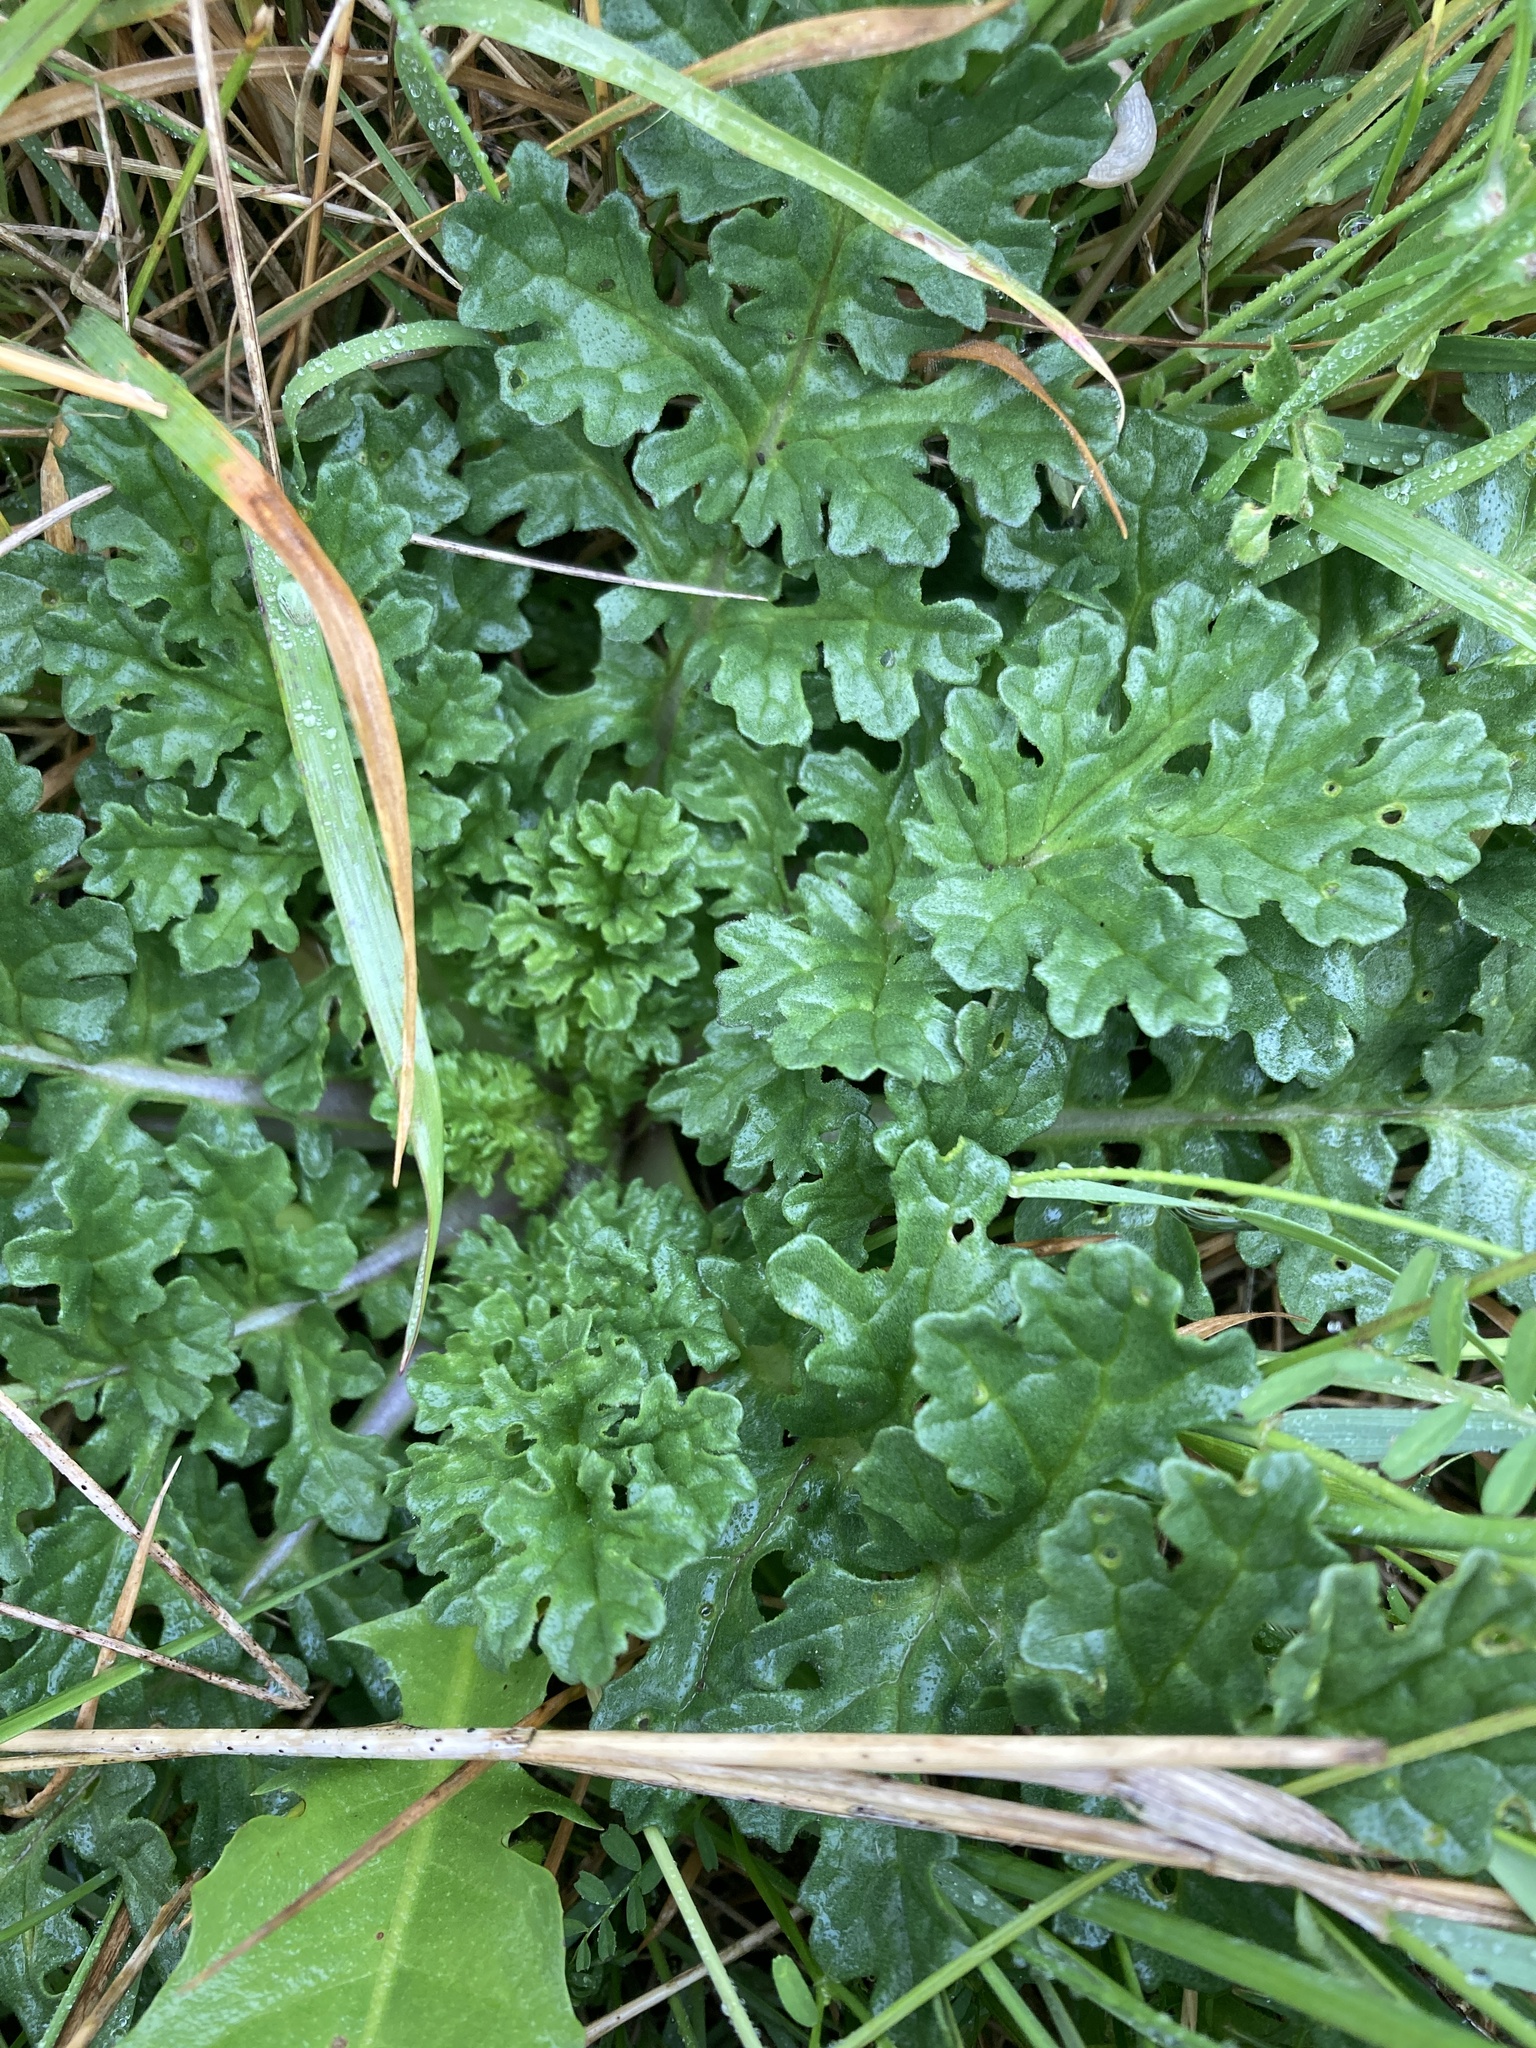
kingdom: Plantae
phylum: Tracheophyta
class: Magnoliopsida
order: Asterales
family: Asteraceae
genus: Jacobaea
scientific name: Jacobaea vulgaris
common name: Stinking willie
